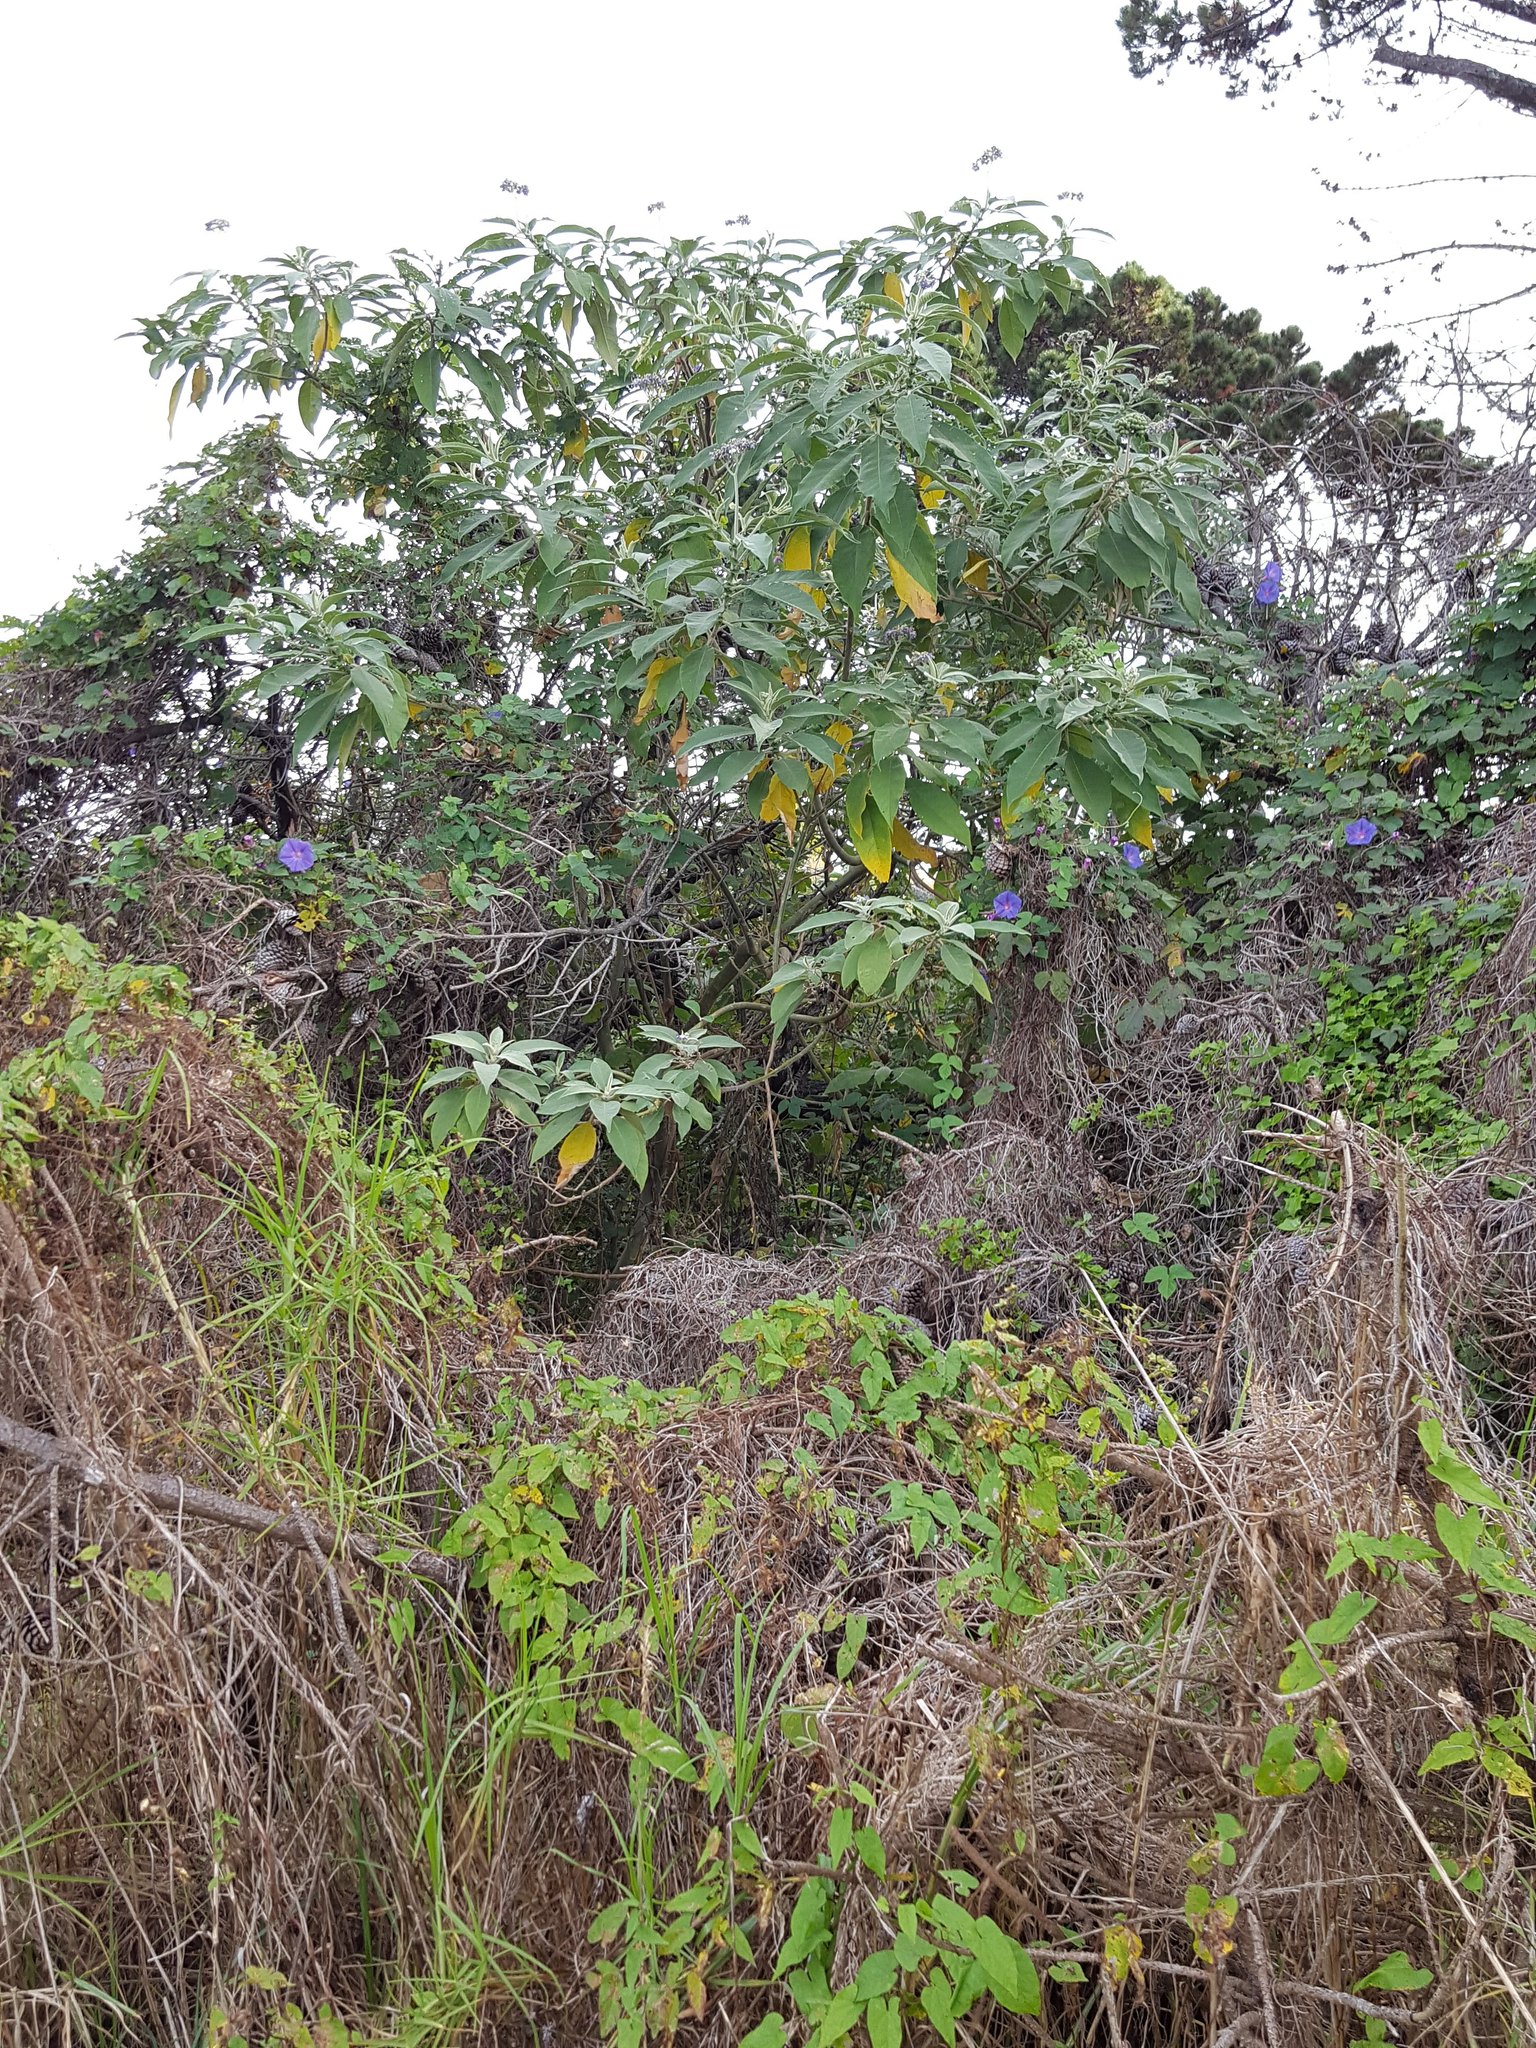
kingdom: Plantae
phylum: Tracheophyta
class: Magnoliopsida
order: Solanales
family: Solanaceae
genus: Solanum
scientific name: Solanum mauritianum
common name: Earleaf nightshade
